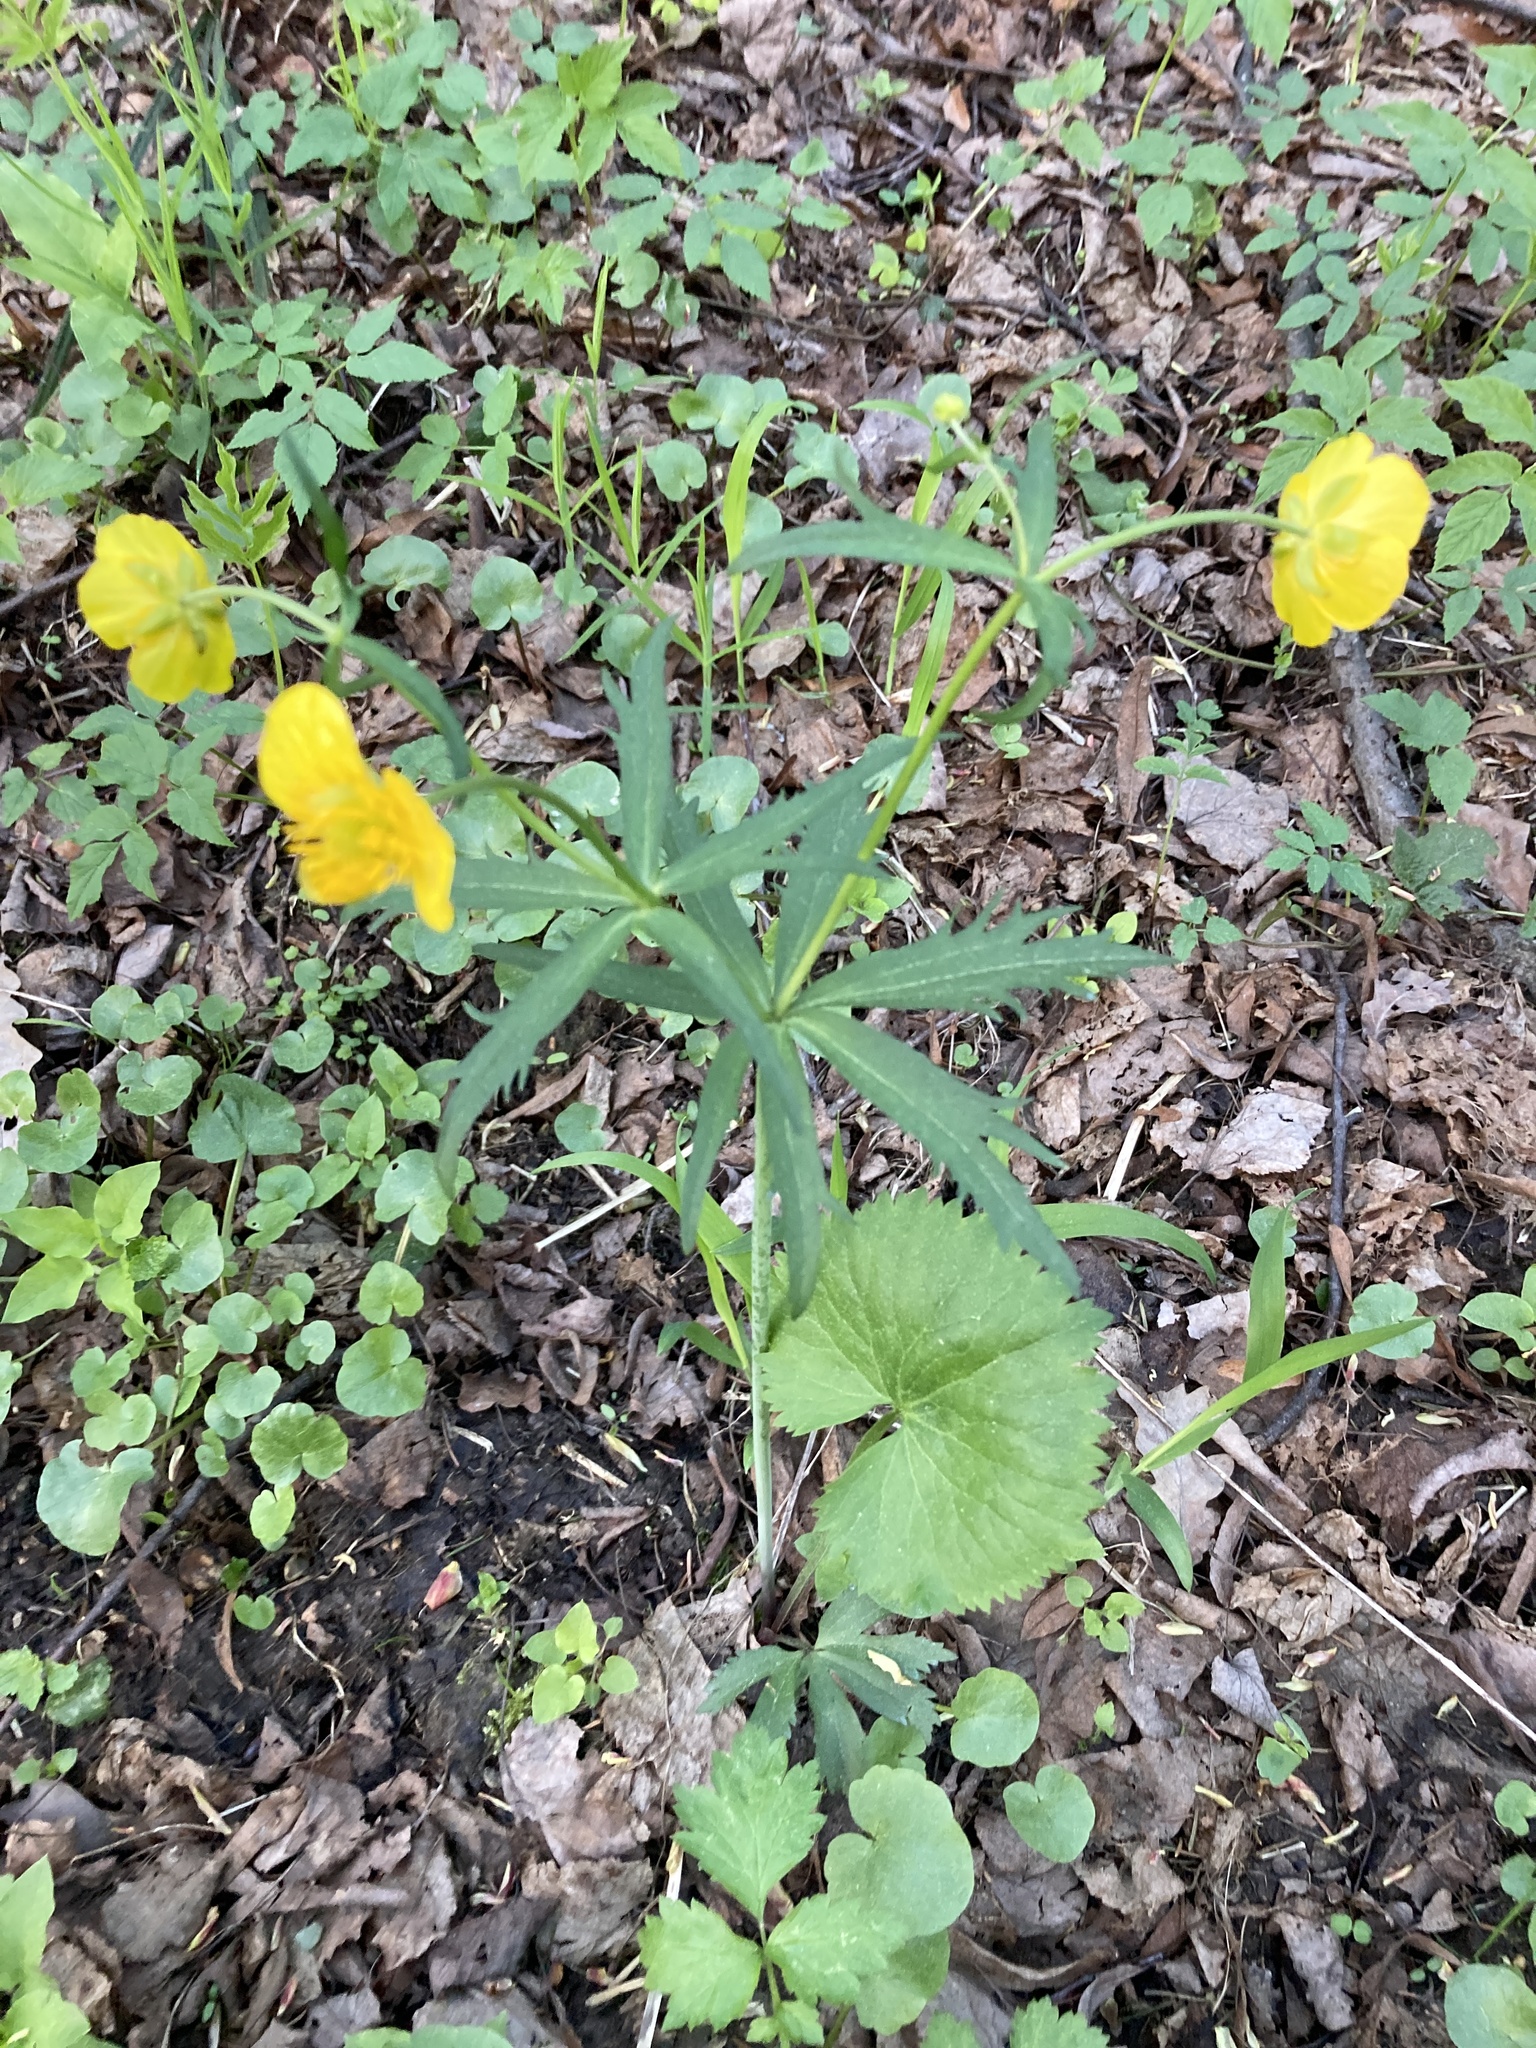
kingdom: Plantae
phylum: Tracheophyta
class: Magnoliopsida
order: Ranunculales
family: Ranunculaceae
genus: Ranunculus
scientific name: Ranunculus cassubicus
